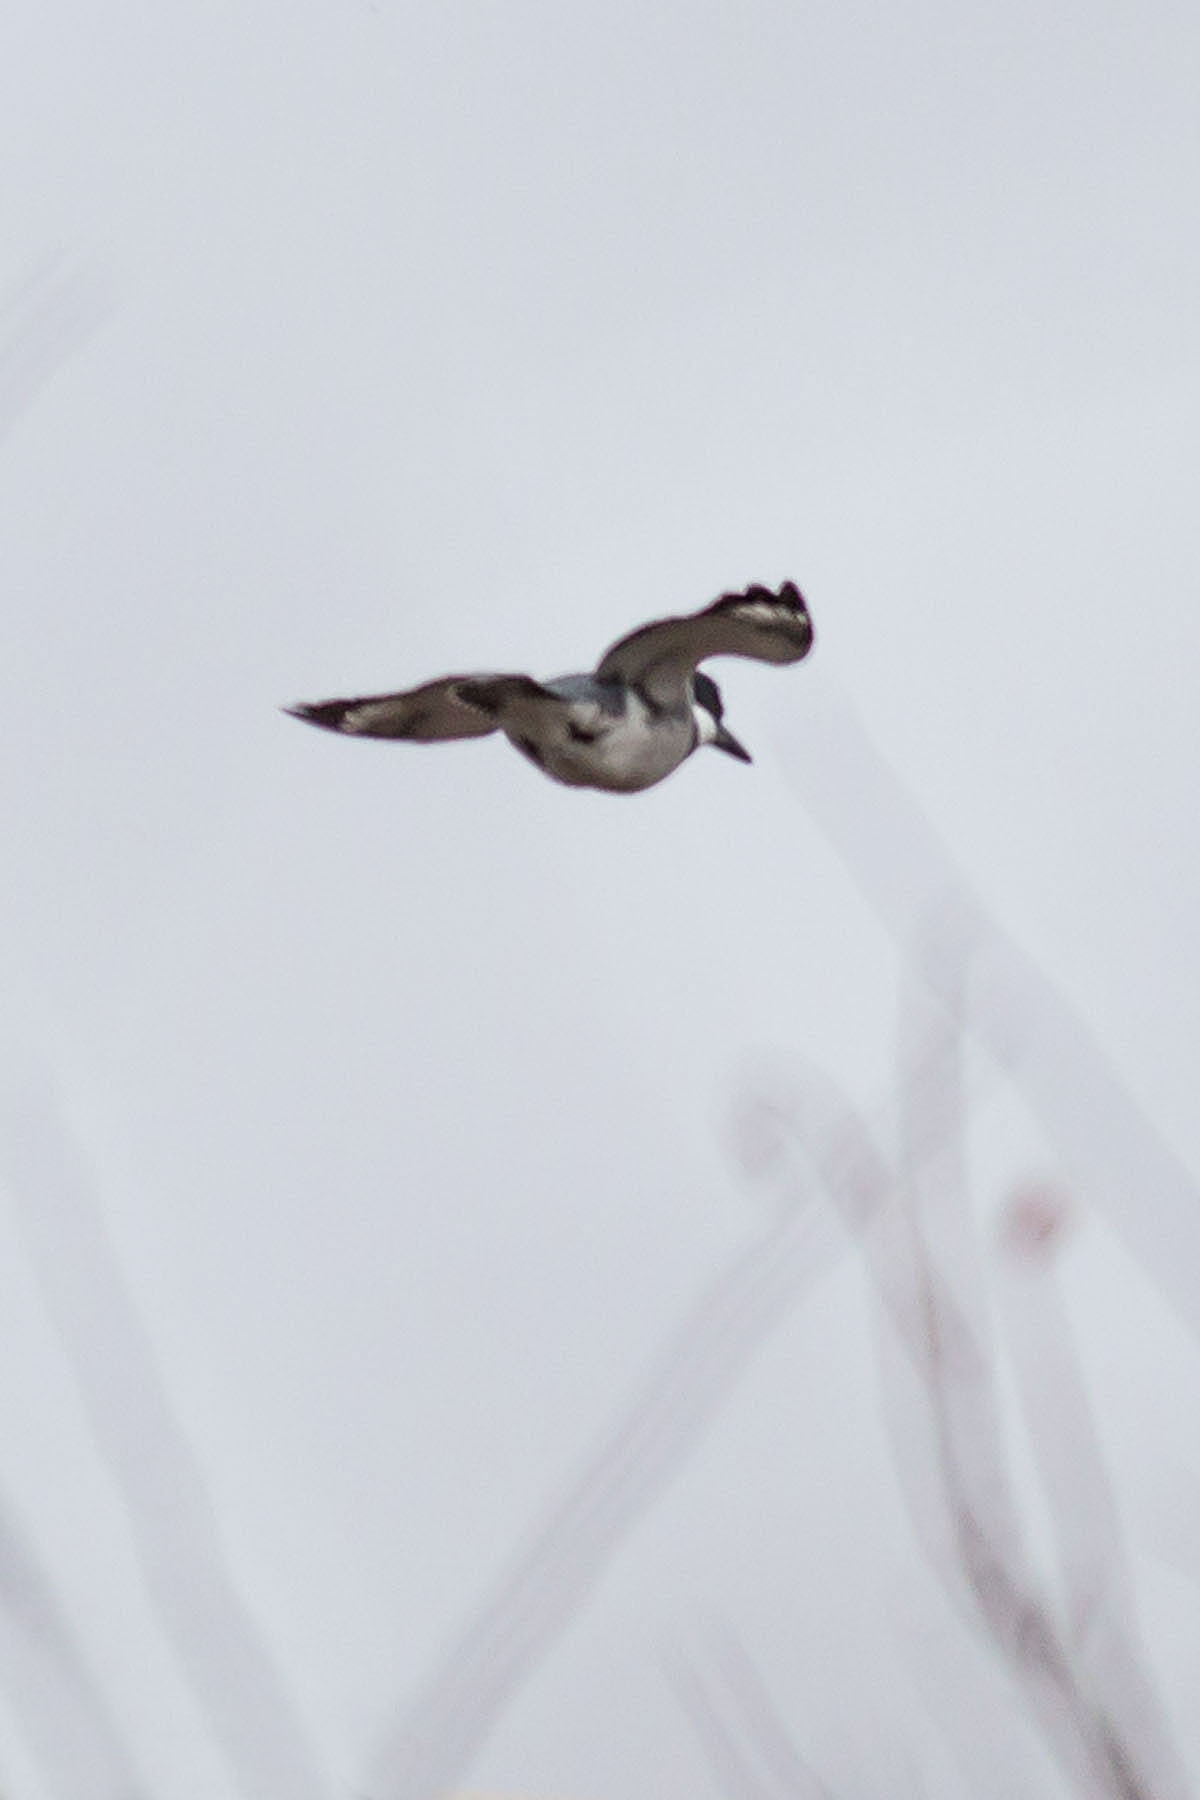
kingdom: Animalia
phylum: Chordata
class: Aves
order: Coraciiformes
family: Alcedinidae
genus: Megaceryle
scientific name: Megaceryle alcyon
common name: Belted kingfisher
